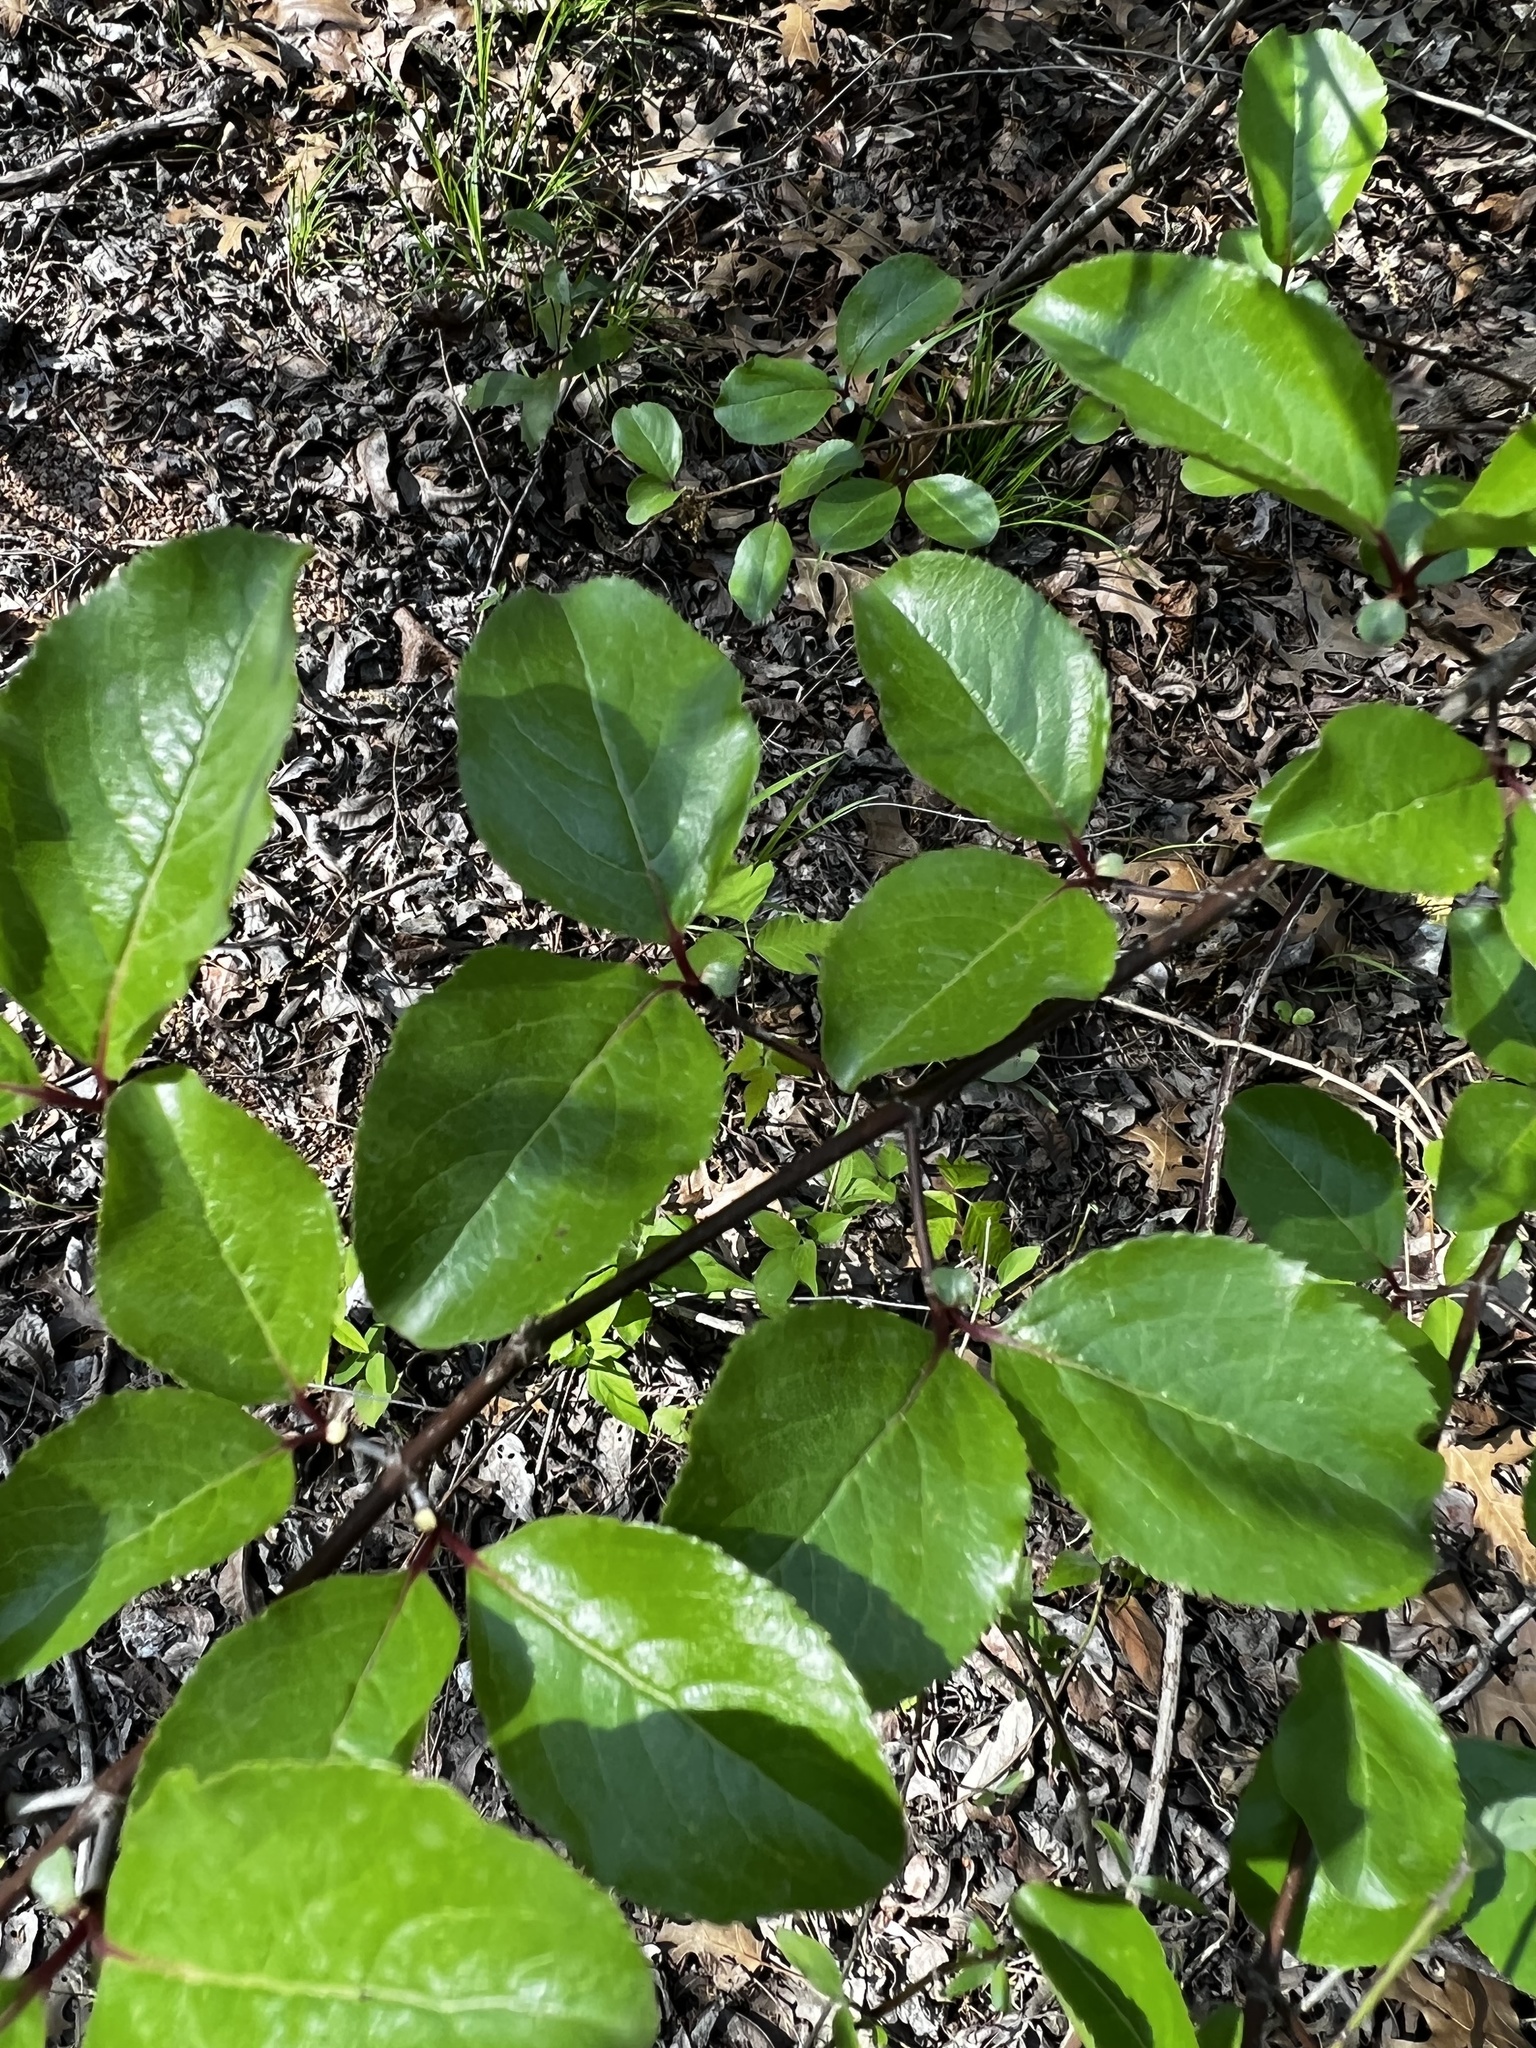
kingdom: Plantae
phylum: Tracheophyta
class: Magnoliopsida
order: Dipsacales
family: Viburnaceae
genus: Viburnum
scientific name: Viburnum rufidulum
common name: Blue haw
